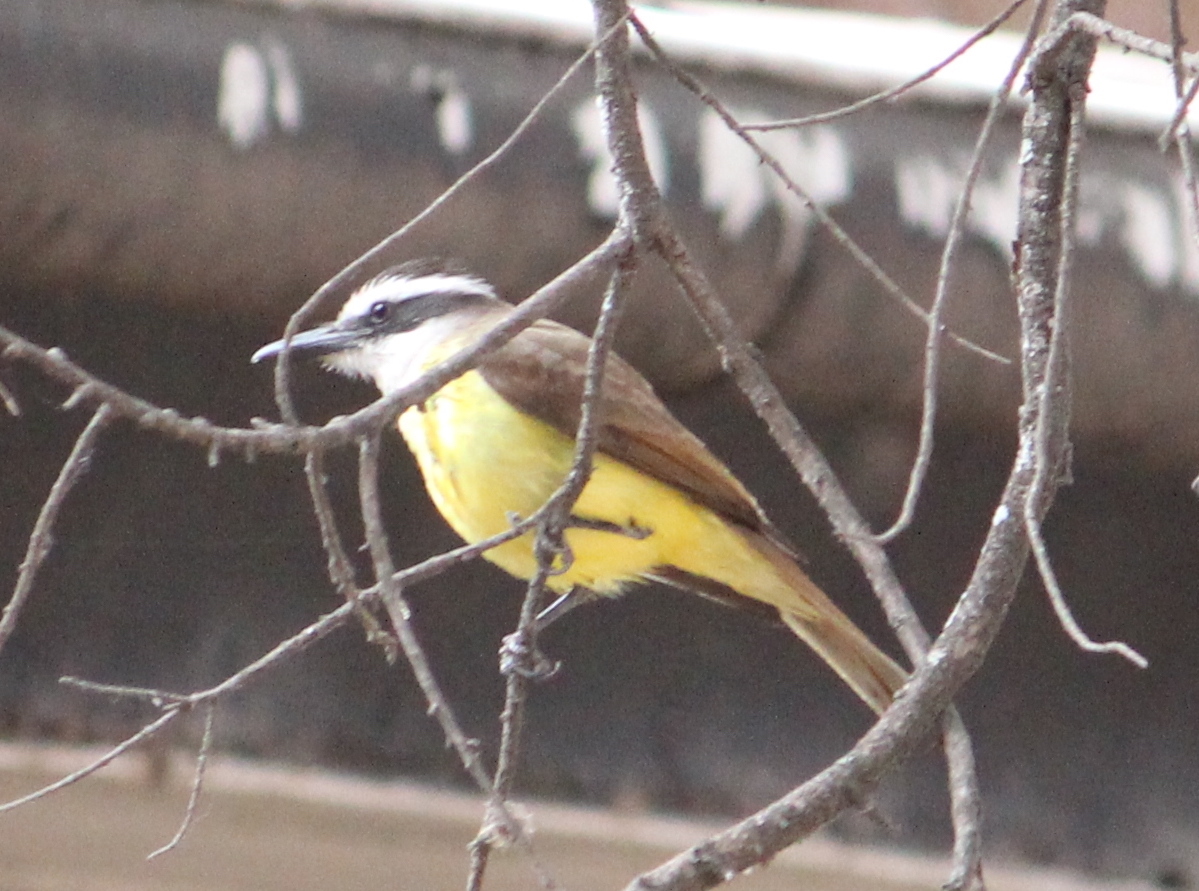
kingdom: Animalia
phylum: Chordata
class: Aves
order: Passeriformes
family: Tyrannidae
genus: Pitangus
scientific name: Pitangus sulphuratus
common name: Great kiskadee
